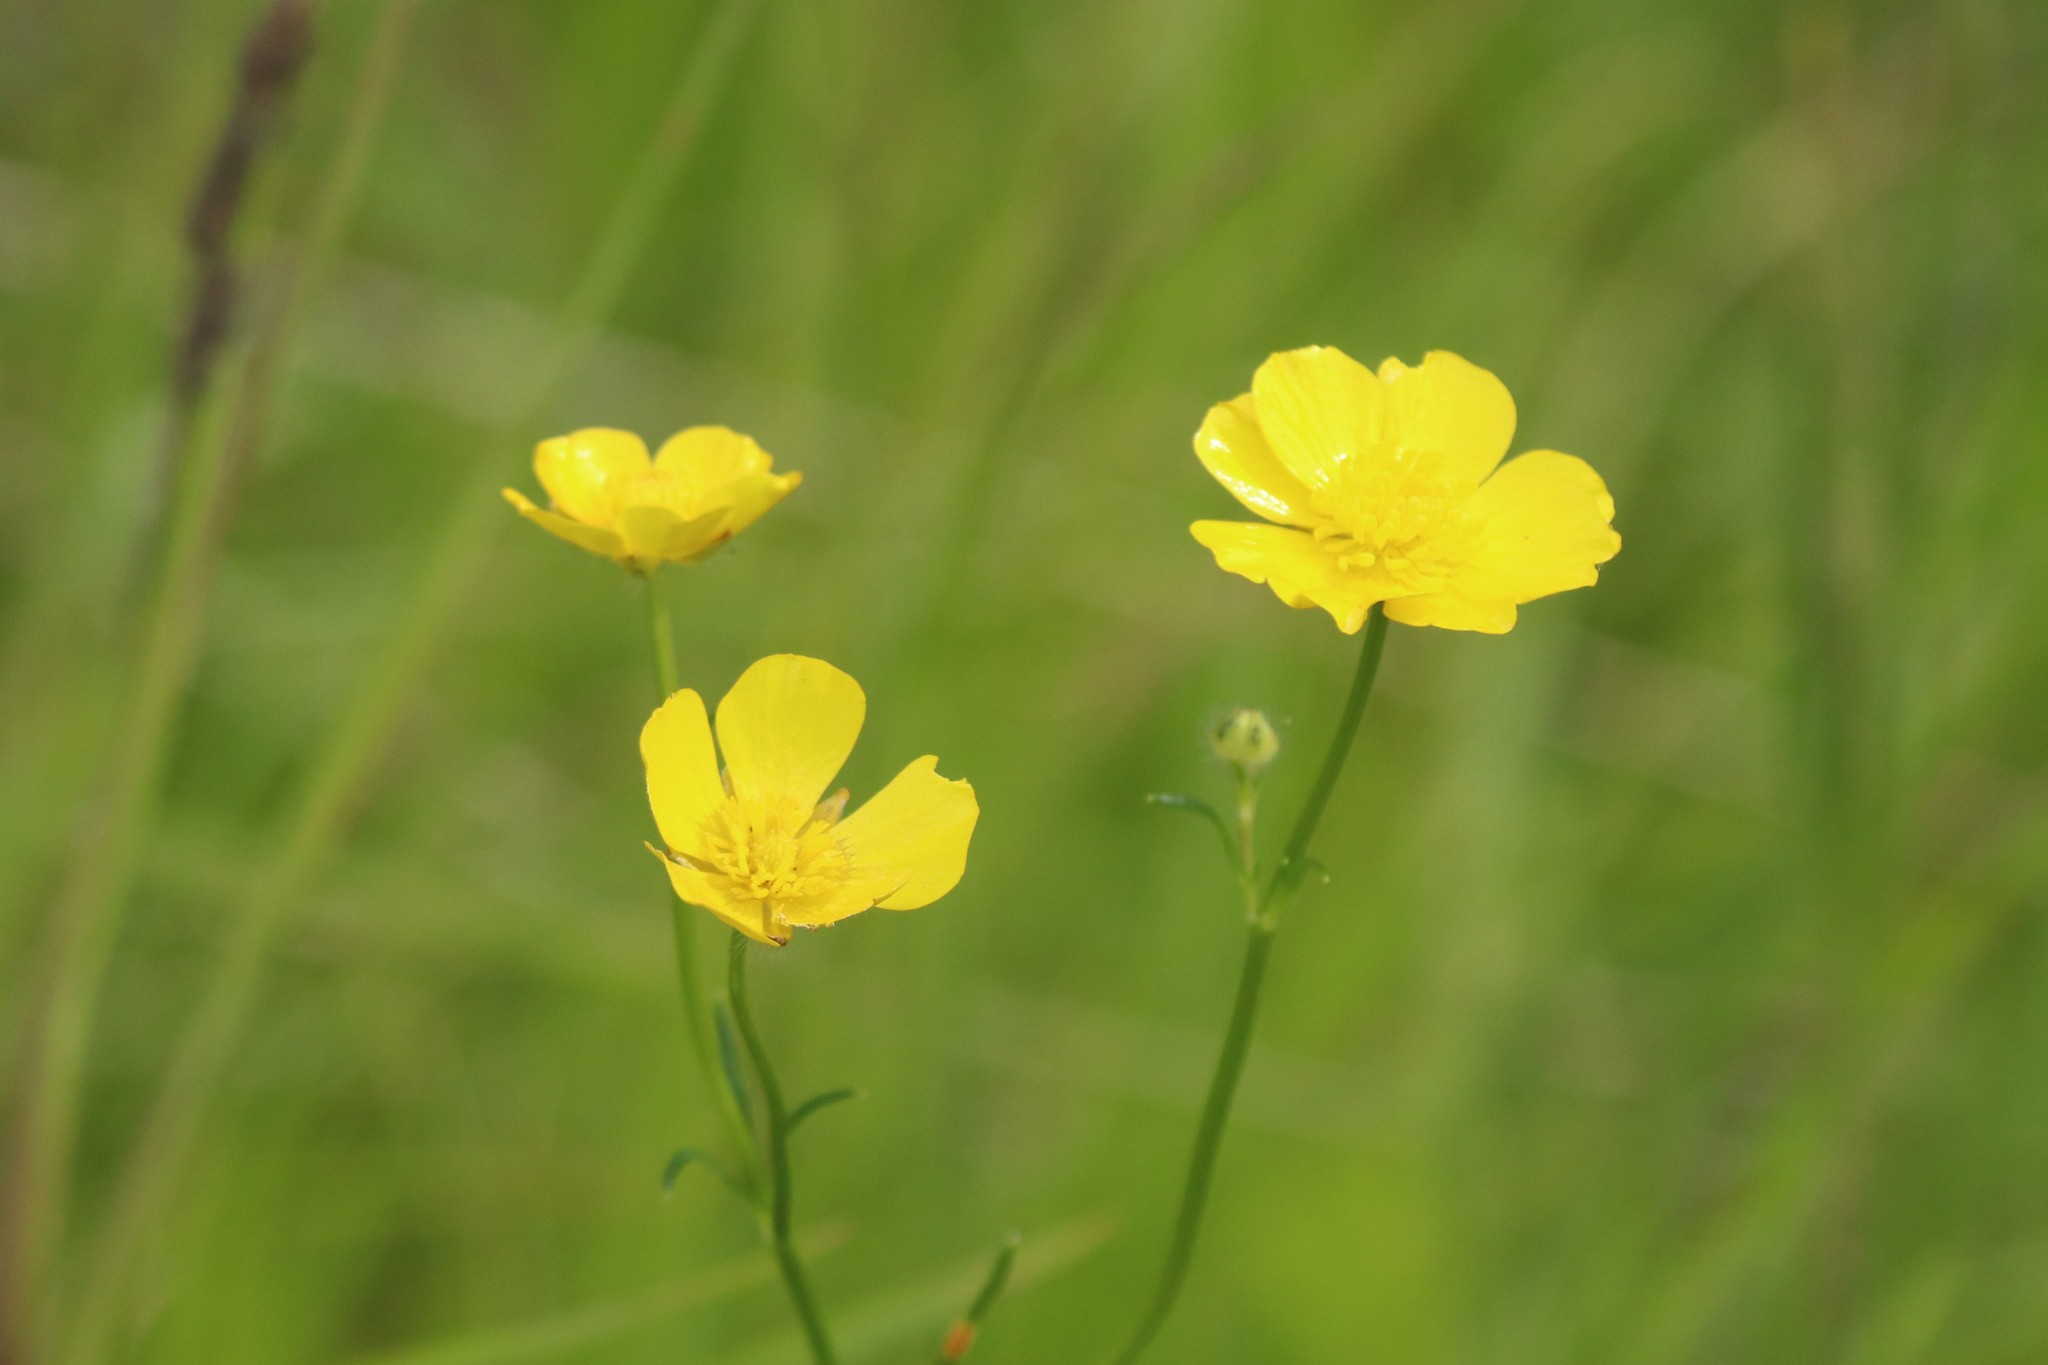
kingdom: Plantae
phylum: Tracheophyta
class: Magnoliopsida
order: Ranunculales
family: Ranunculaceae
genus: Ranunculus
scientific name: Ranunculus polyanthemos
